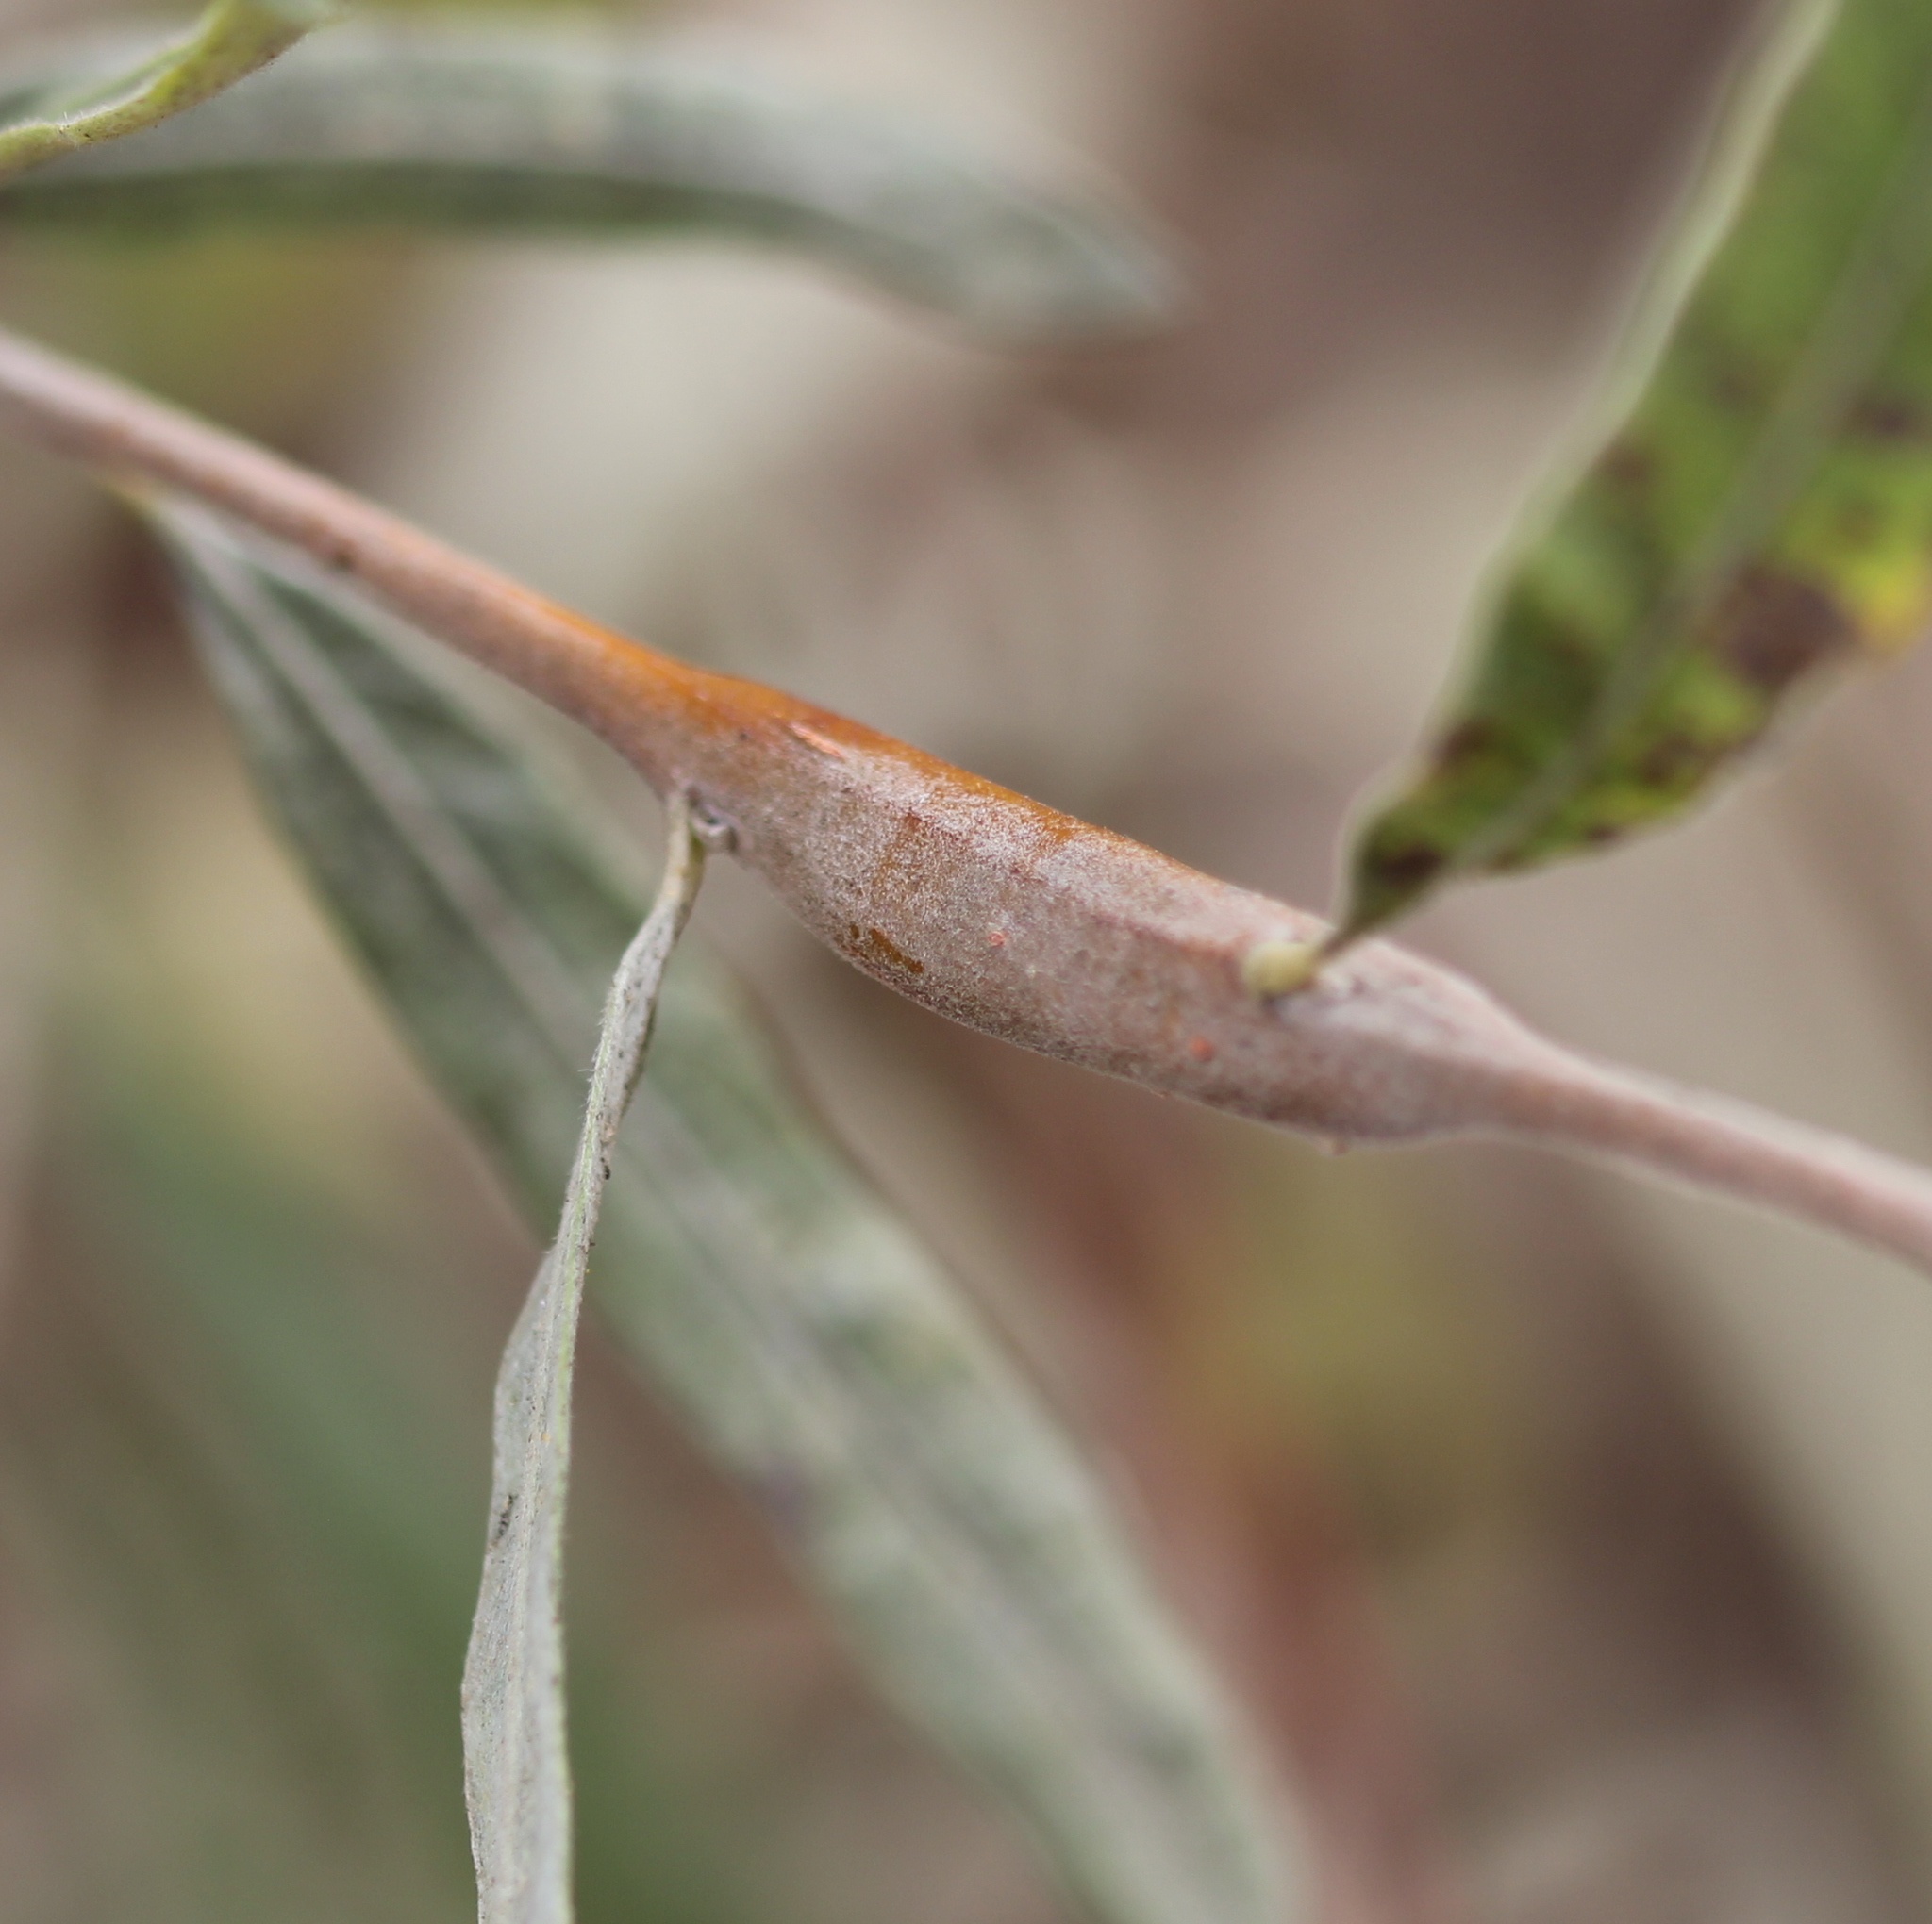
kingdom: Animalia
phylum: Arthropoda
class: Insecta
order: Hymenoptera
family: Tenthredinidae
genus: Euura
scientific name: Euura
